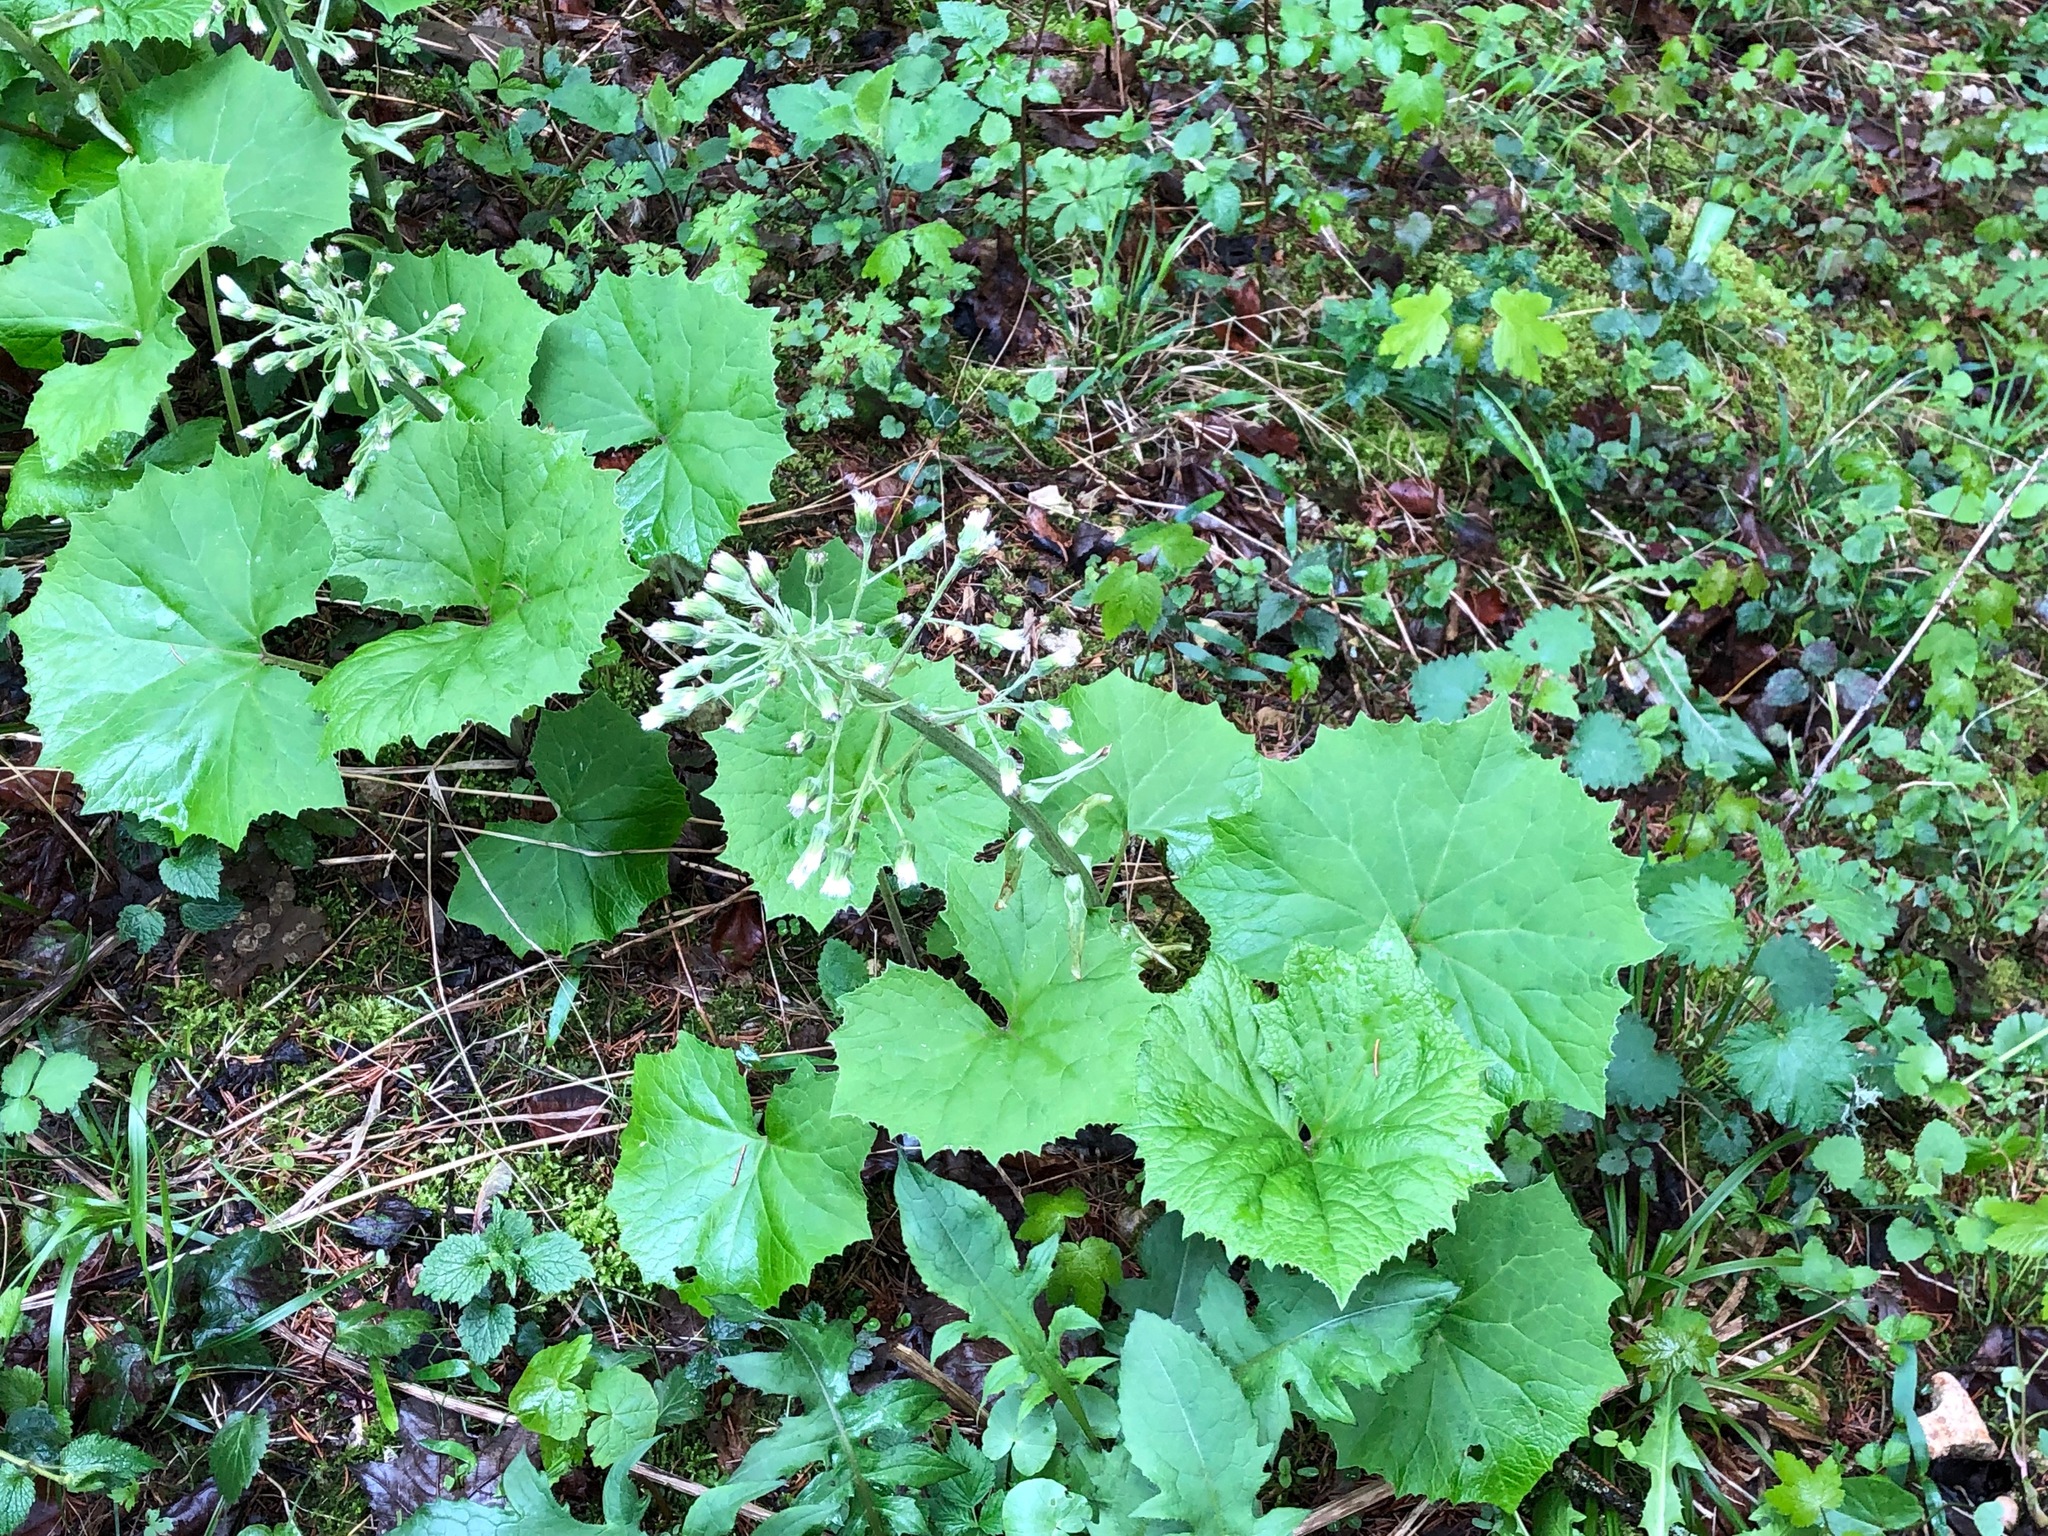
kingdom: Plantae
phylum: Tracheophyta
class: Magnoliopsida
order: Asterales
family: Asteraceae
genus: Petasites
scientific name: Petasites albus
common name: White butterbur
